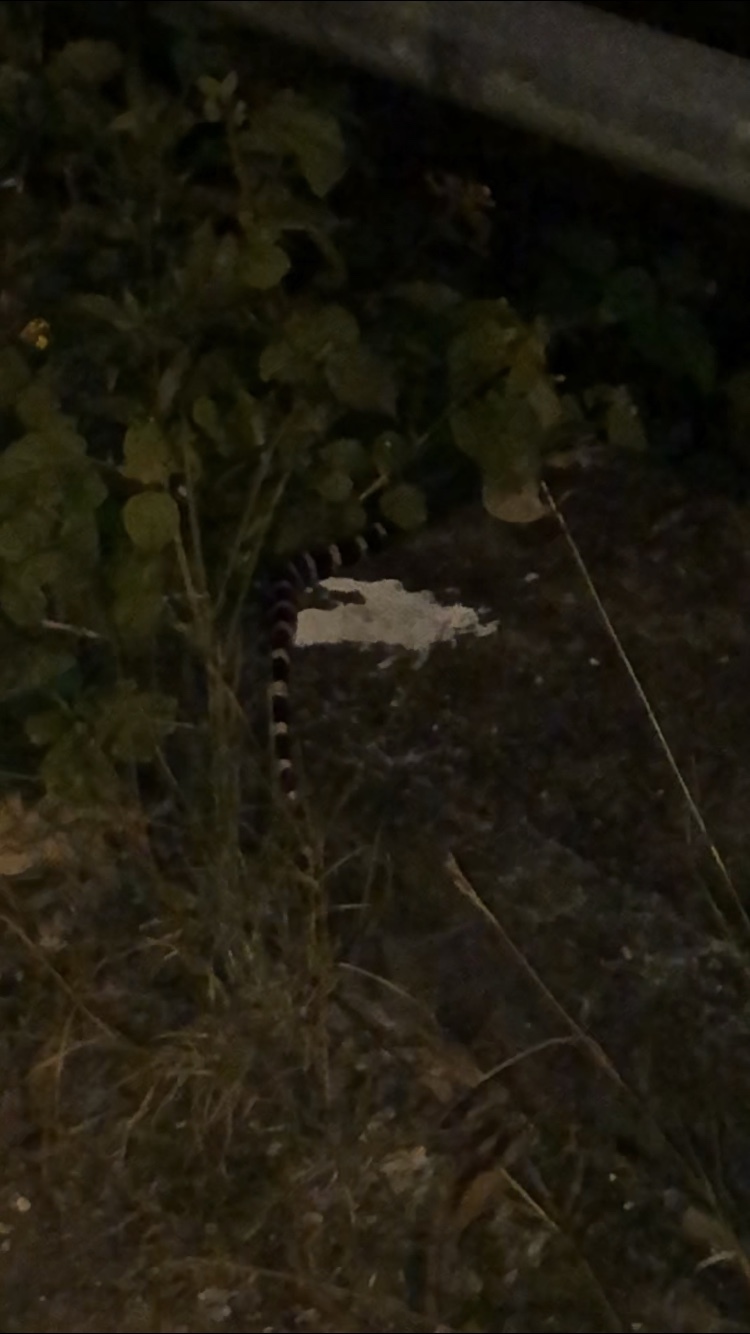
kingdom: Animalia
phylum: Chordata
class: Squamata
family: Elapidae
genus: Bungarus
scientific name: Bungarus multicinctus
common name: Many-banded krait
